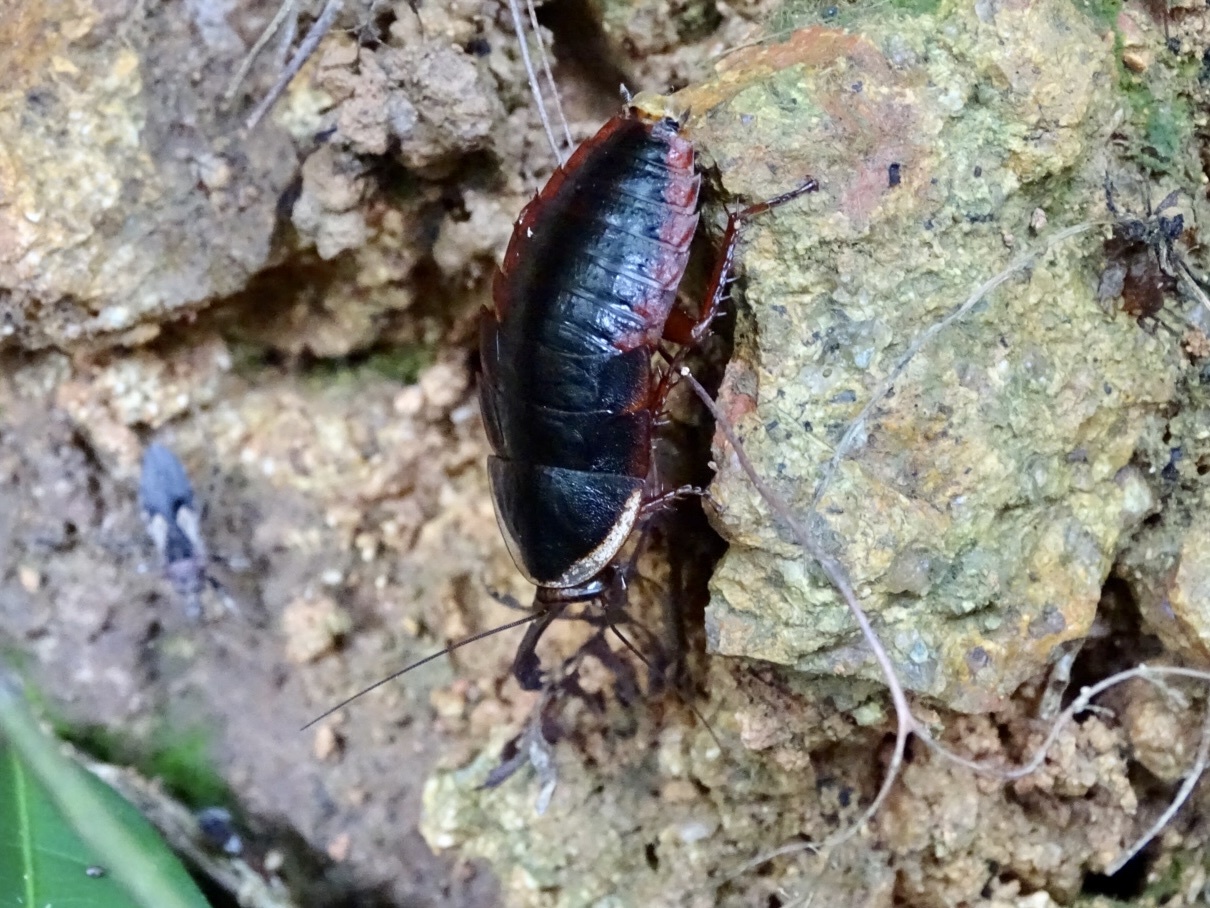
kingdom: Animalia
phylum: Arthropoda
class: Insecta
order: Blattodea
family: Blaberidae
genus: Opisthoplatia
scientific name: Opisthoplatia orientalis
